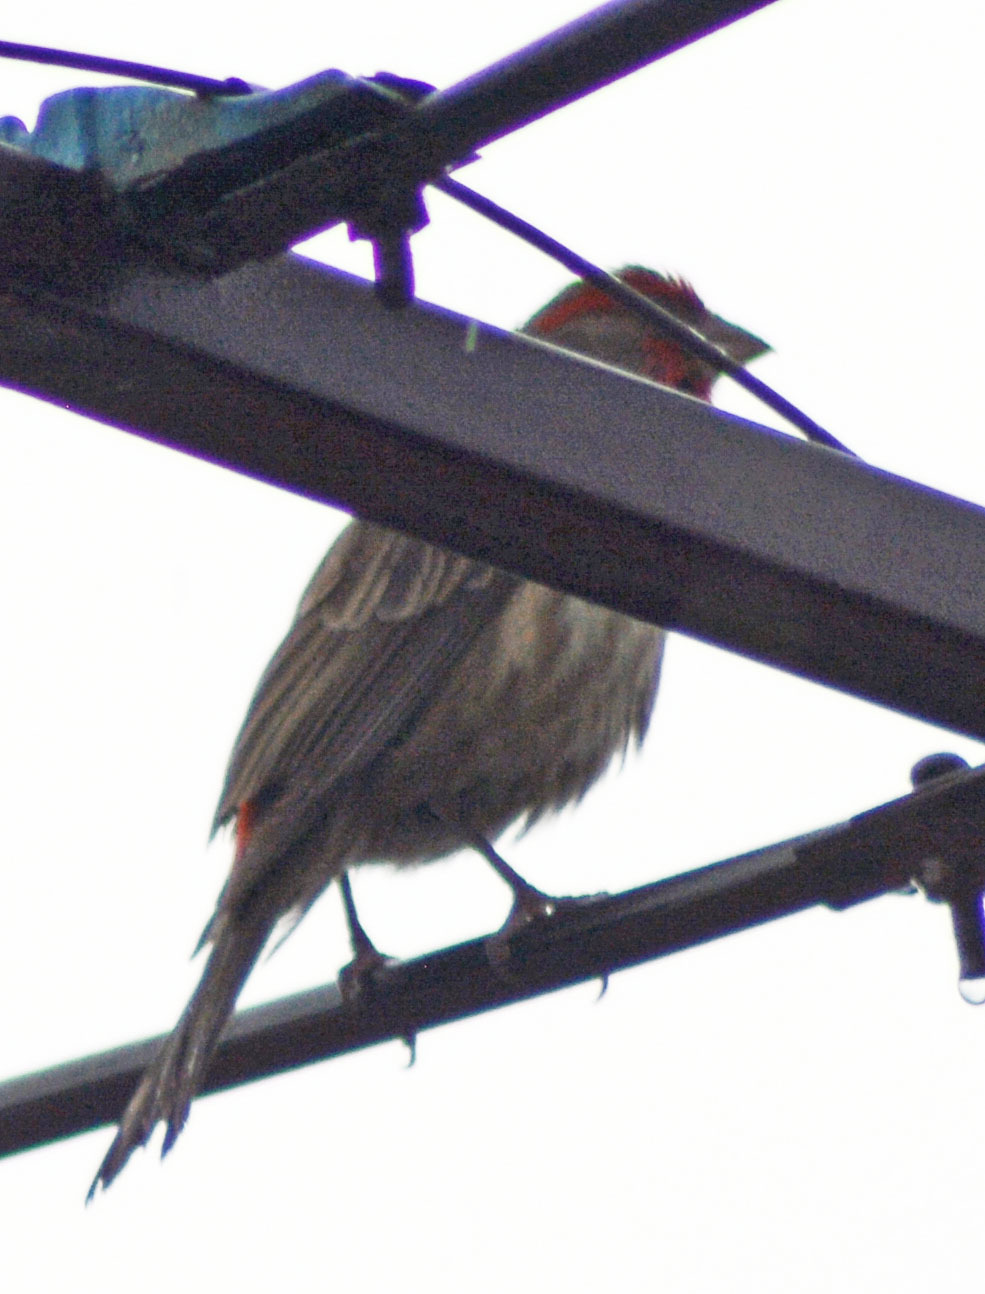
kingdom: Animalia
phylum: Chordata
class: Aves
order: Passeriformes
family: Fringillidae
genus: Haemorhous
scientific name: Haemorhous mexicanus
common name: House finch
